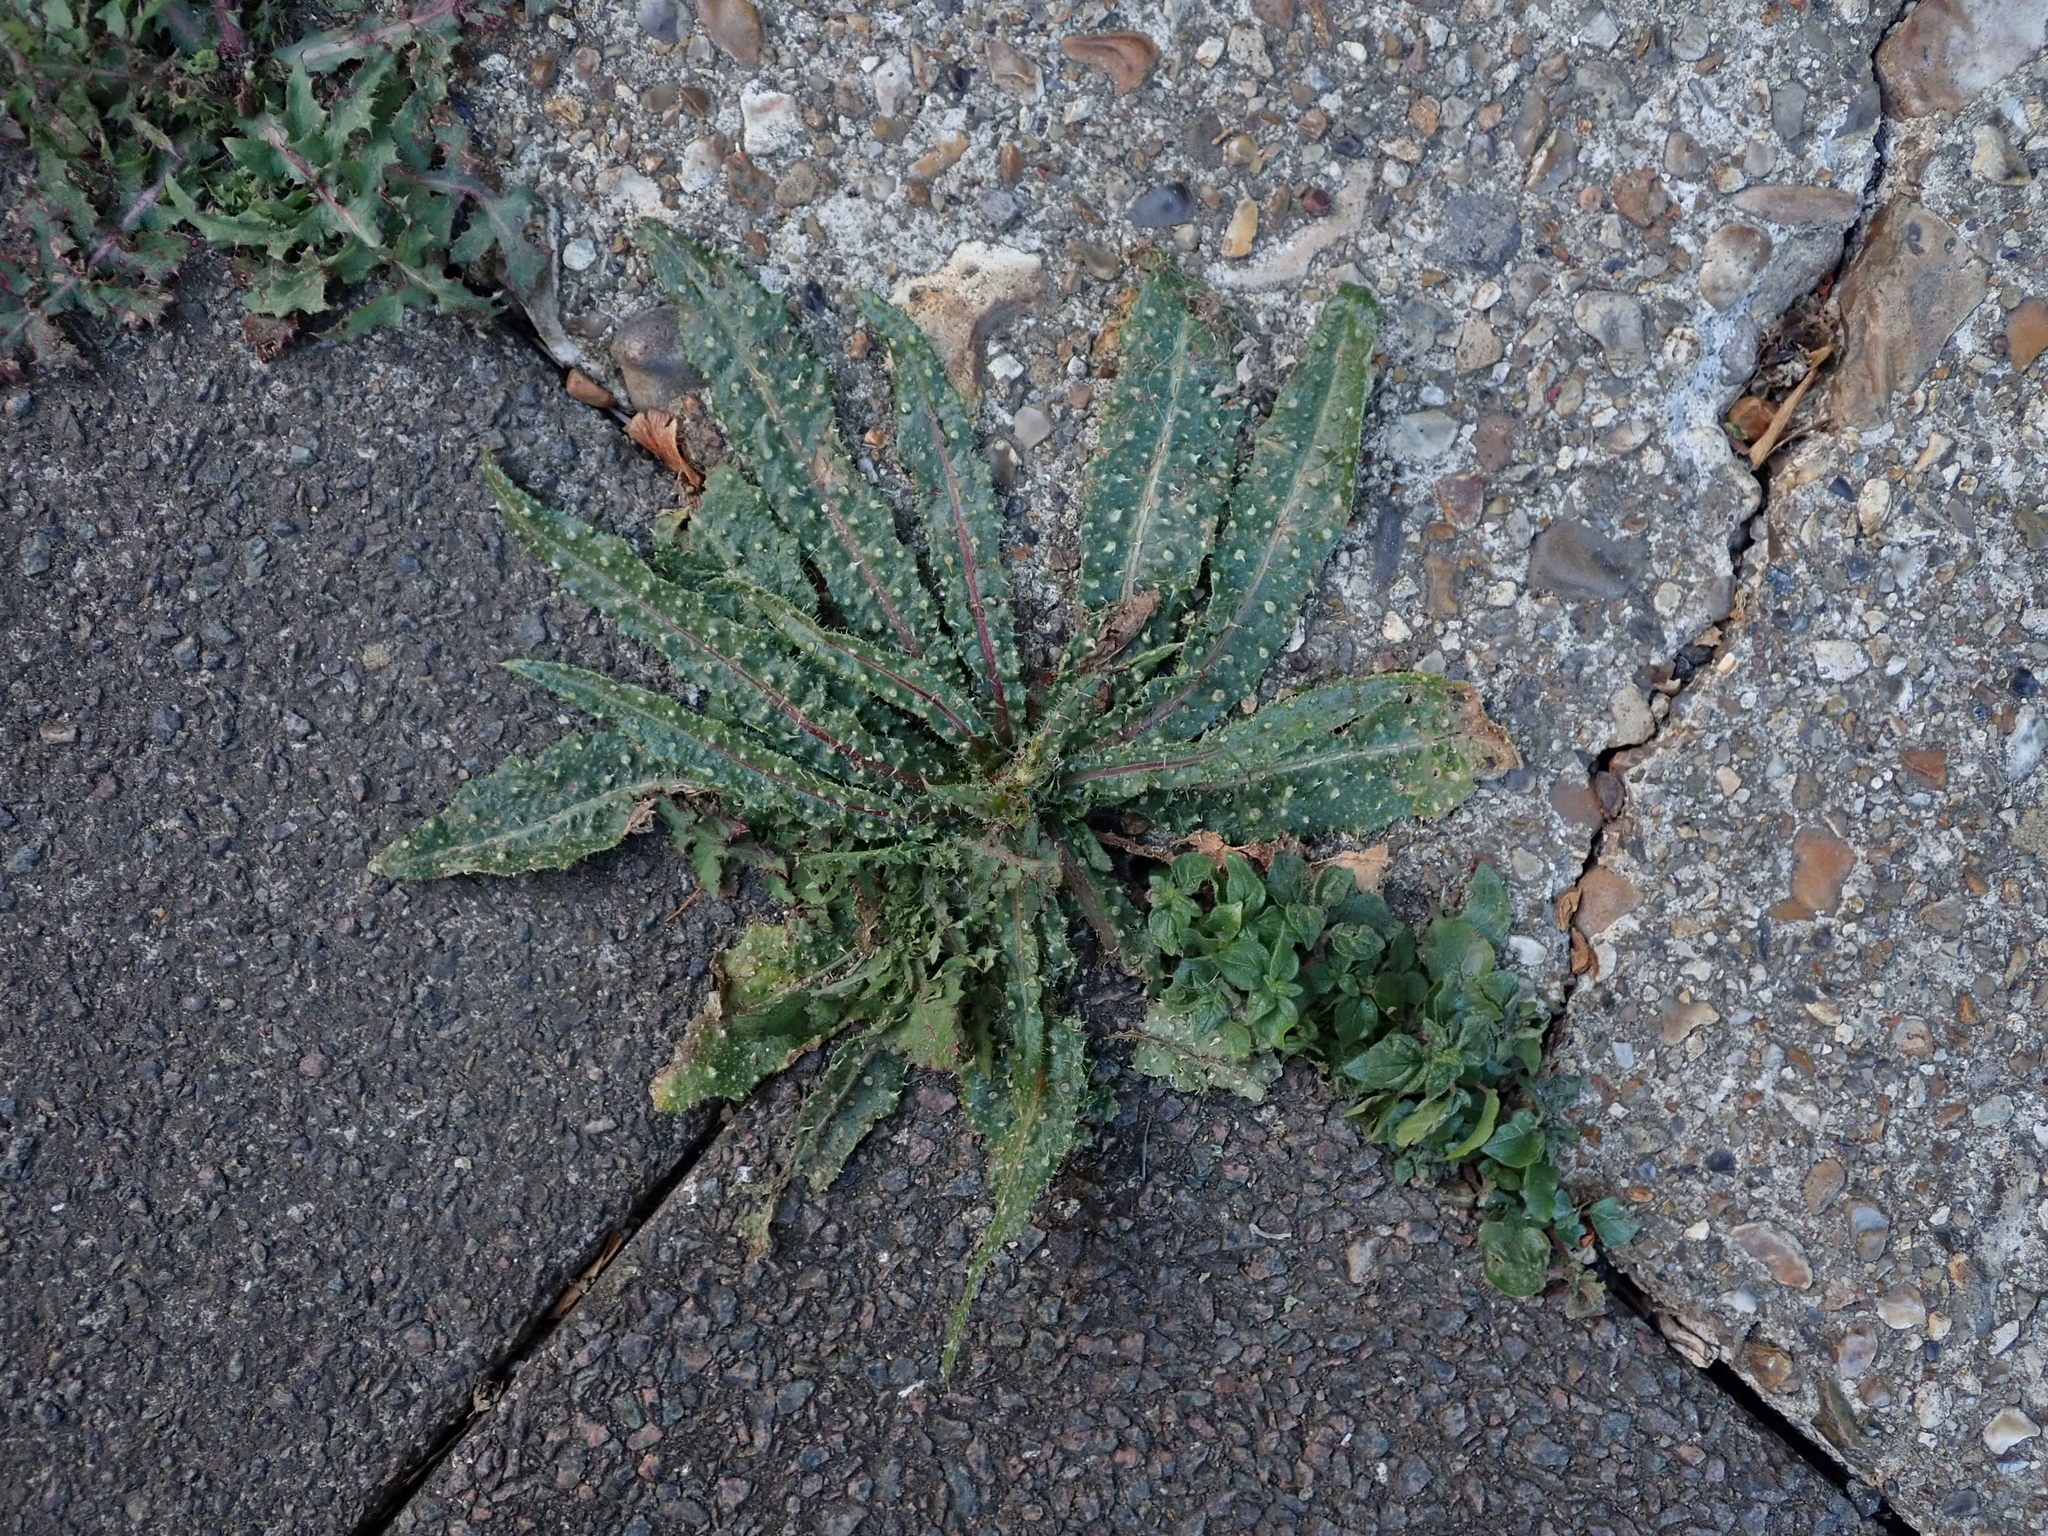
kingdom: Plantae
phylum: Tracheophyta
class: Magnoliopsida
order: Asterales
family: Asteraceae
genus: Helminthotheca
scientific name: Helminthotheca echioides
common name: Ox-tongue
